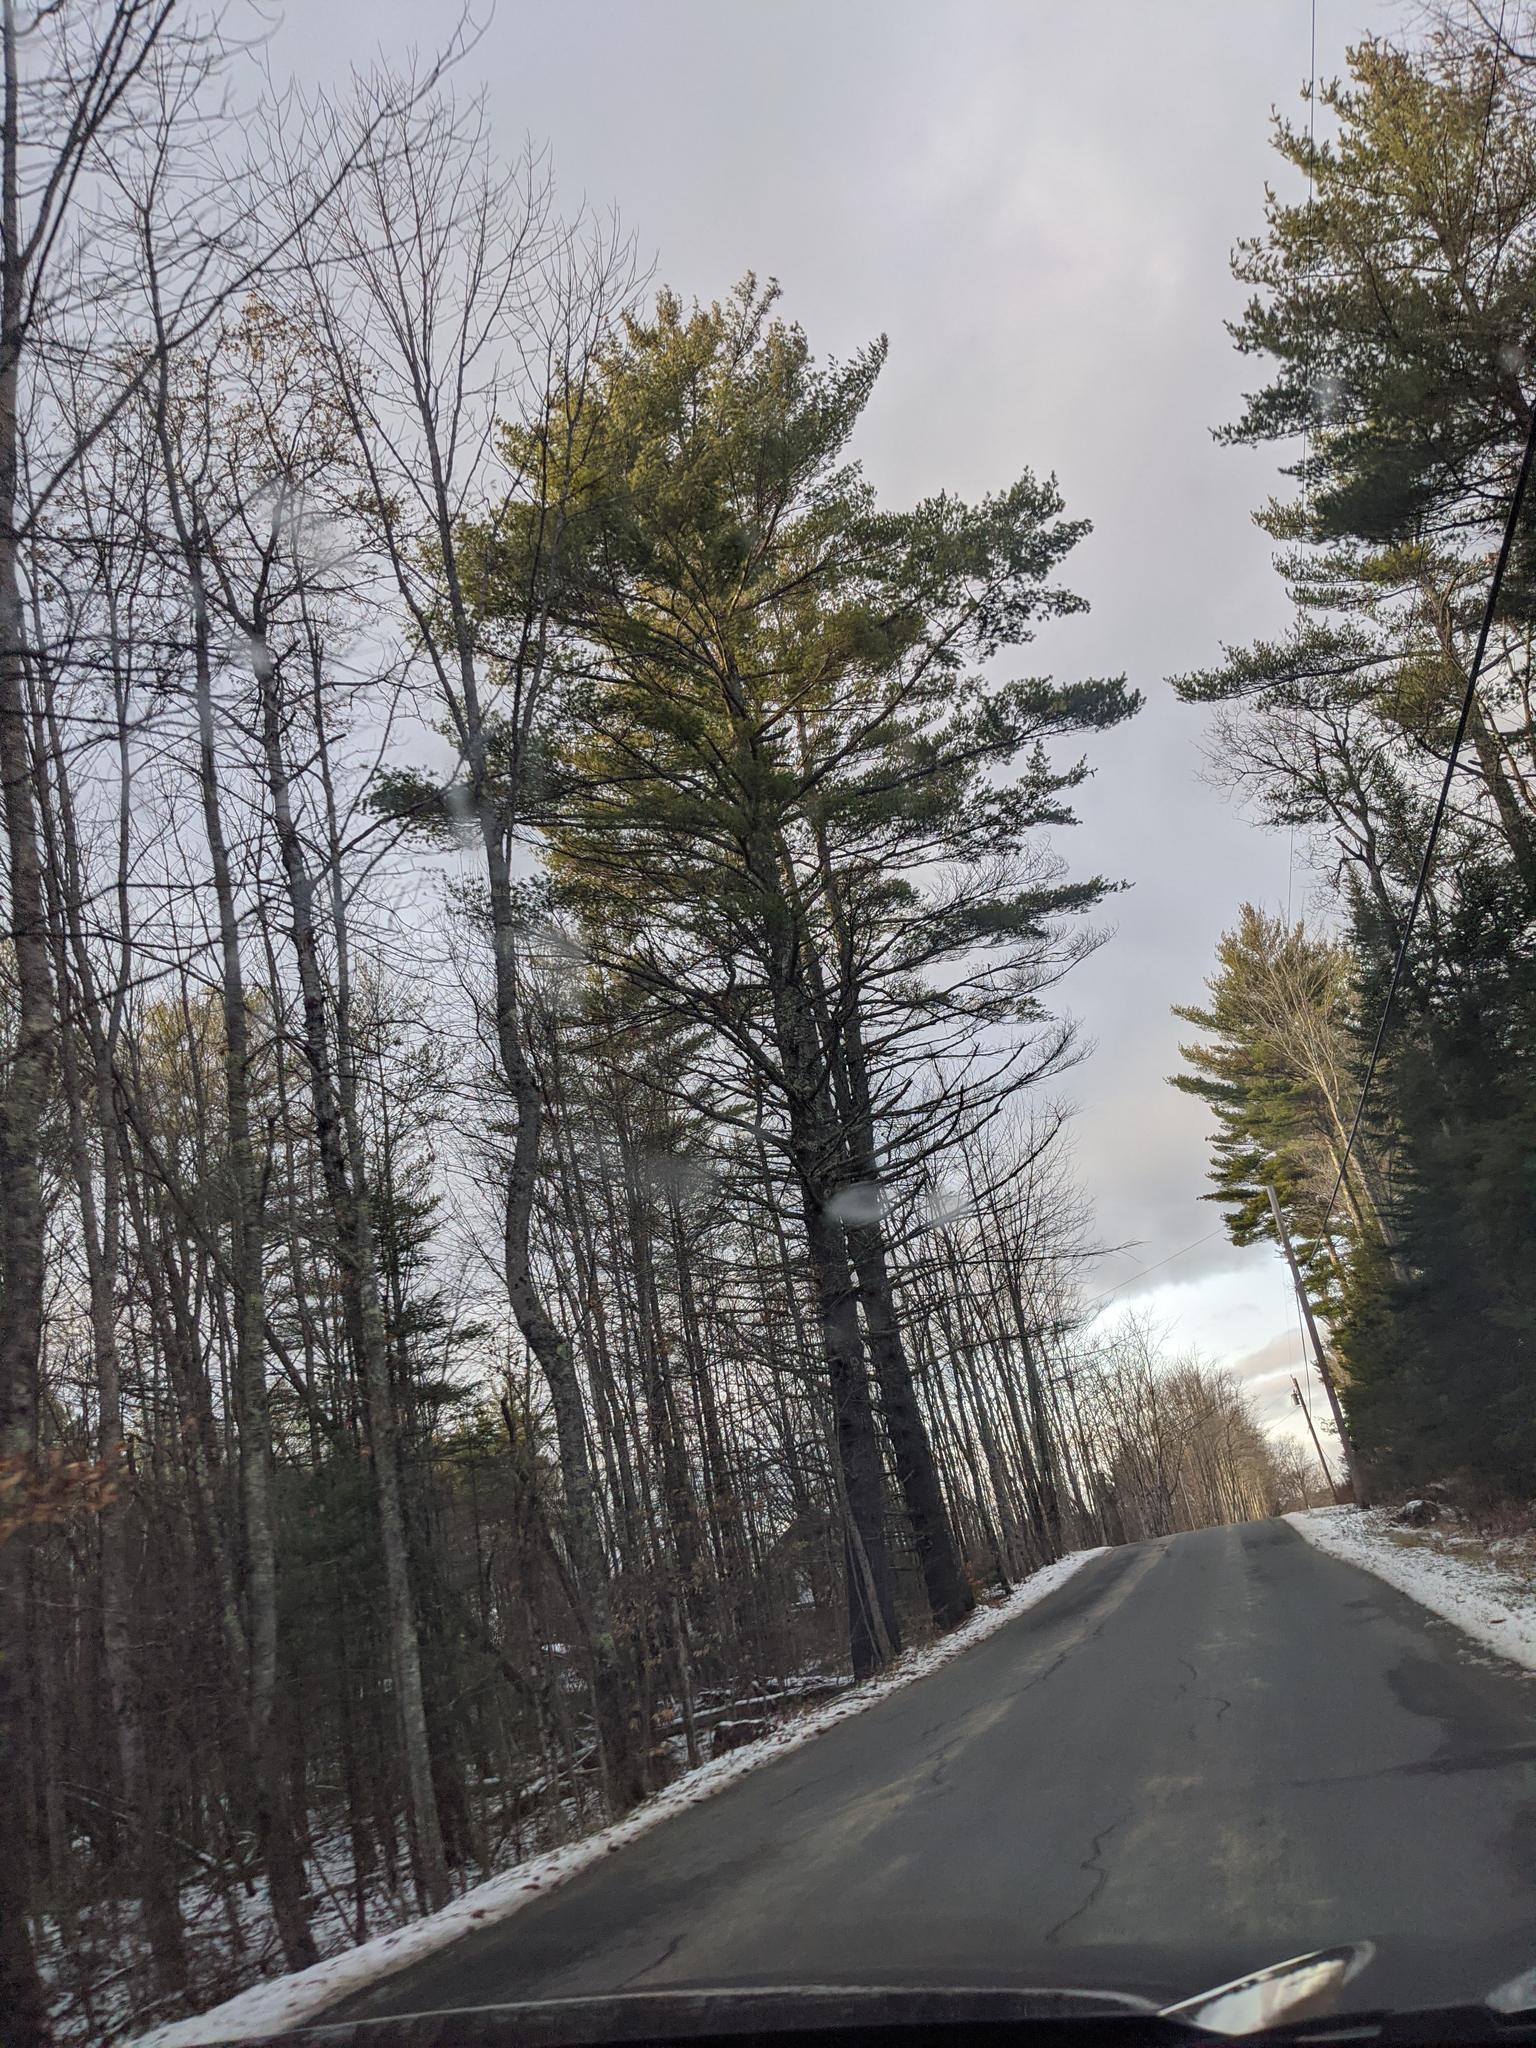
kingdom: Plantae
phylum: Tracheophyta
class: Pinopsida
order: Pinales
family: Pinaceae
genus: Pinus
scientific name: Pinus strobus
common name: Weymouth pine
